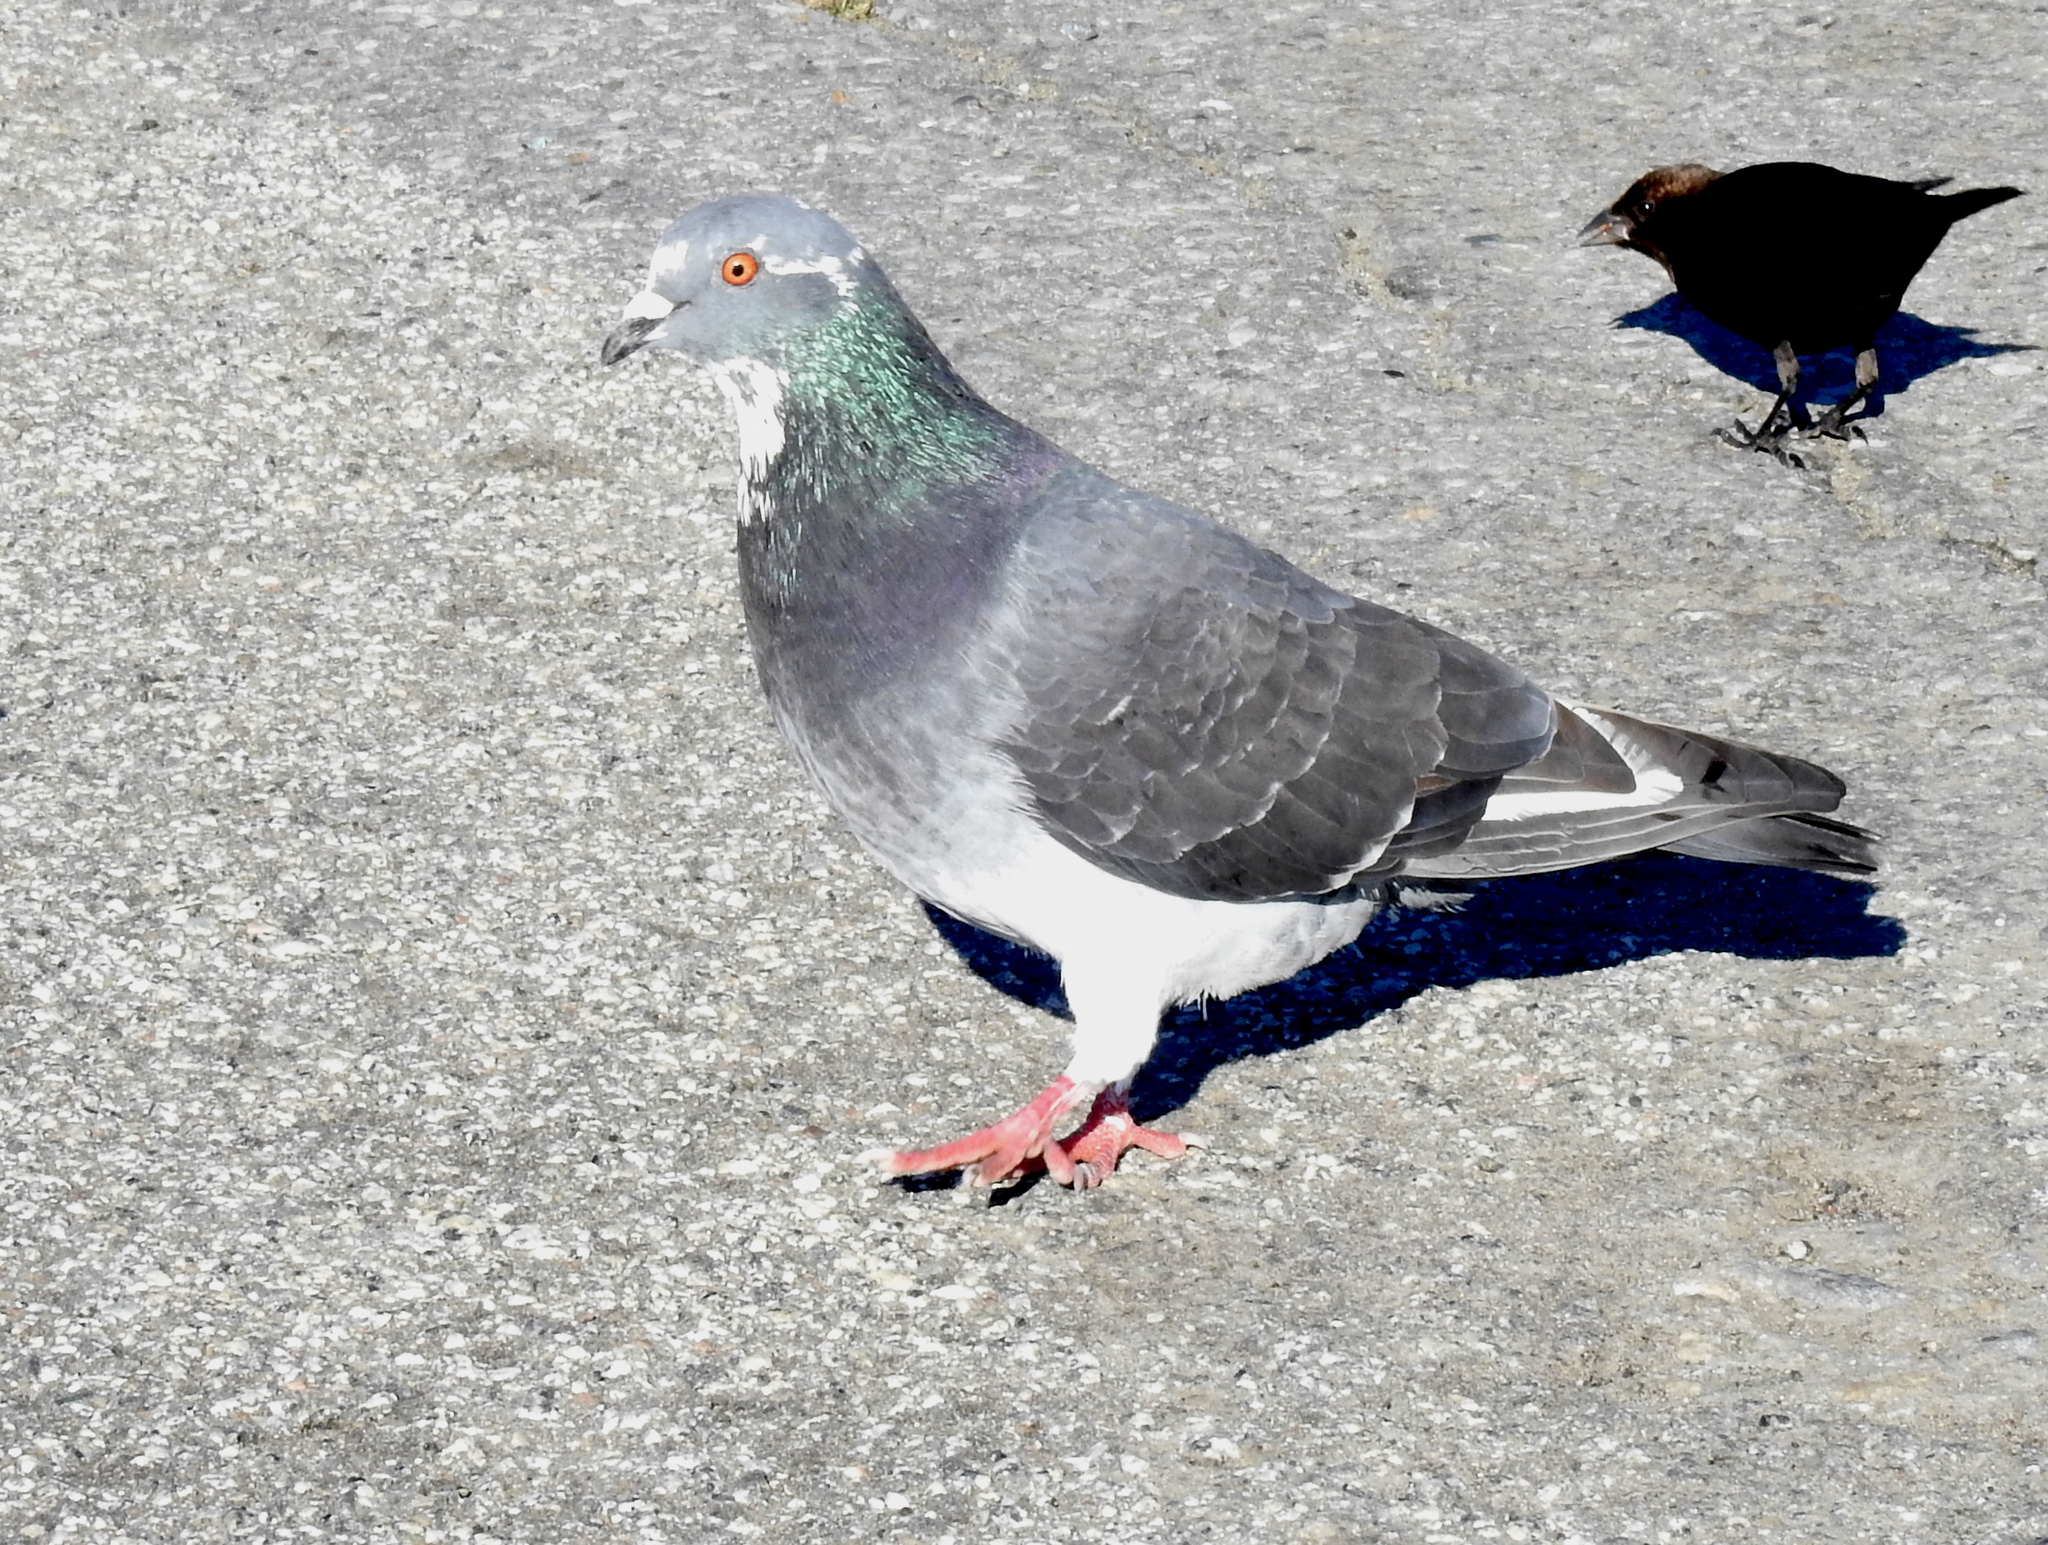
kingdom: Animalia
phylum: Chordata
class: Aves
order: Columbiformes
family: Columbidae
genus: Columba
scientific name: Columba livia
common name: Rock pigeon
